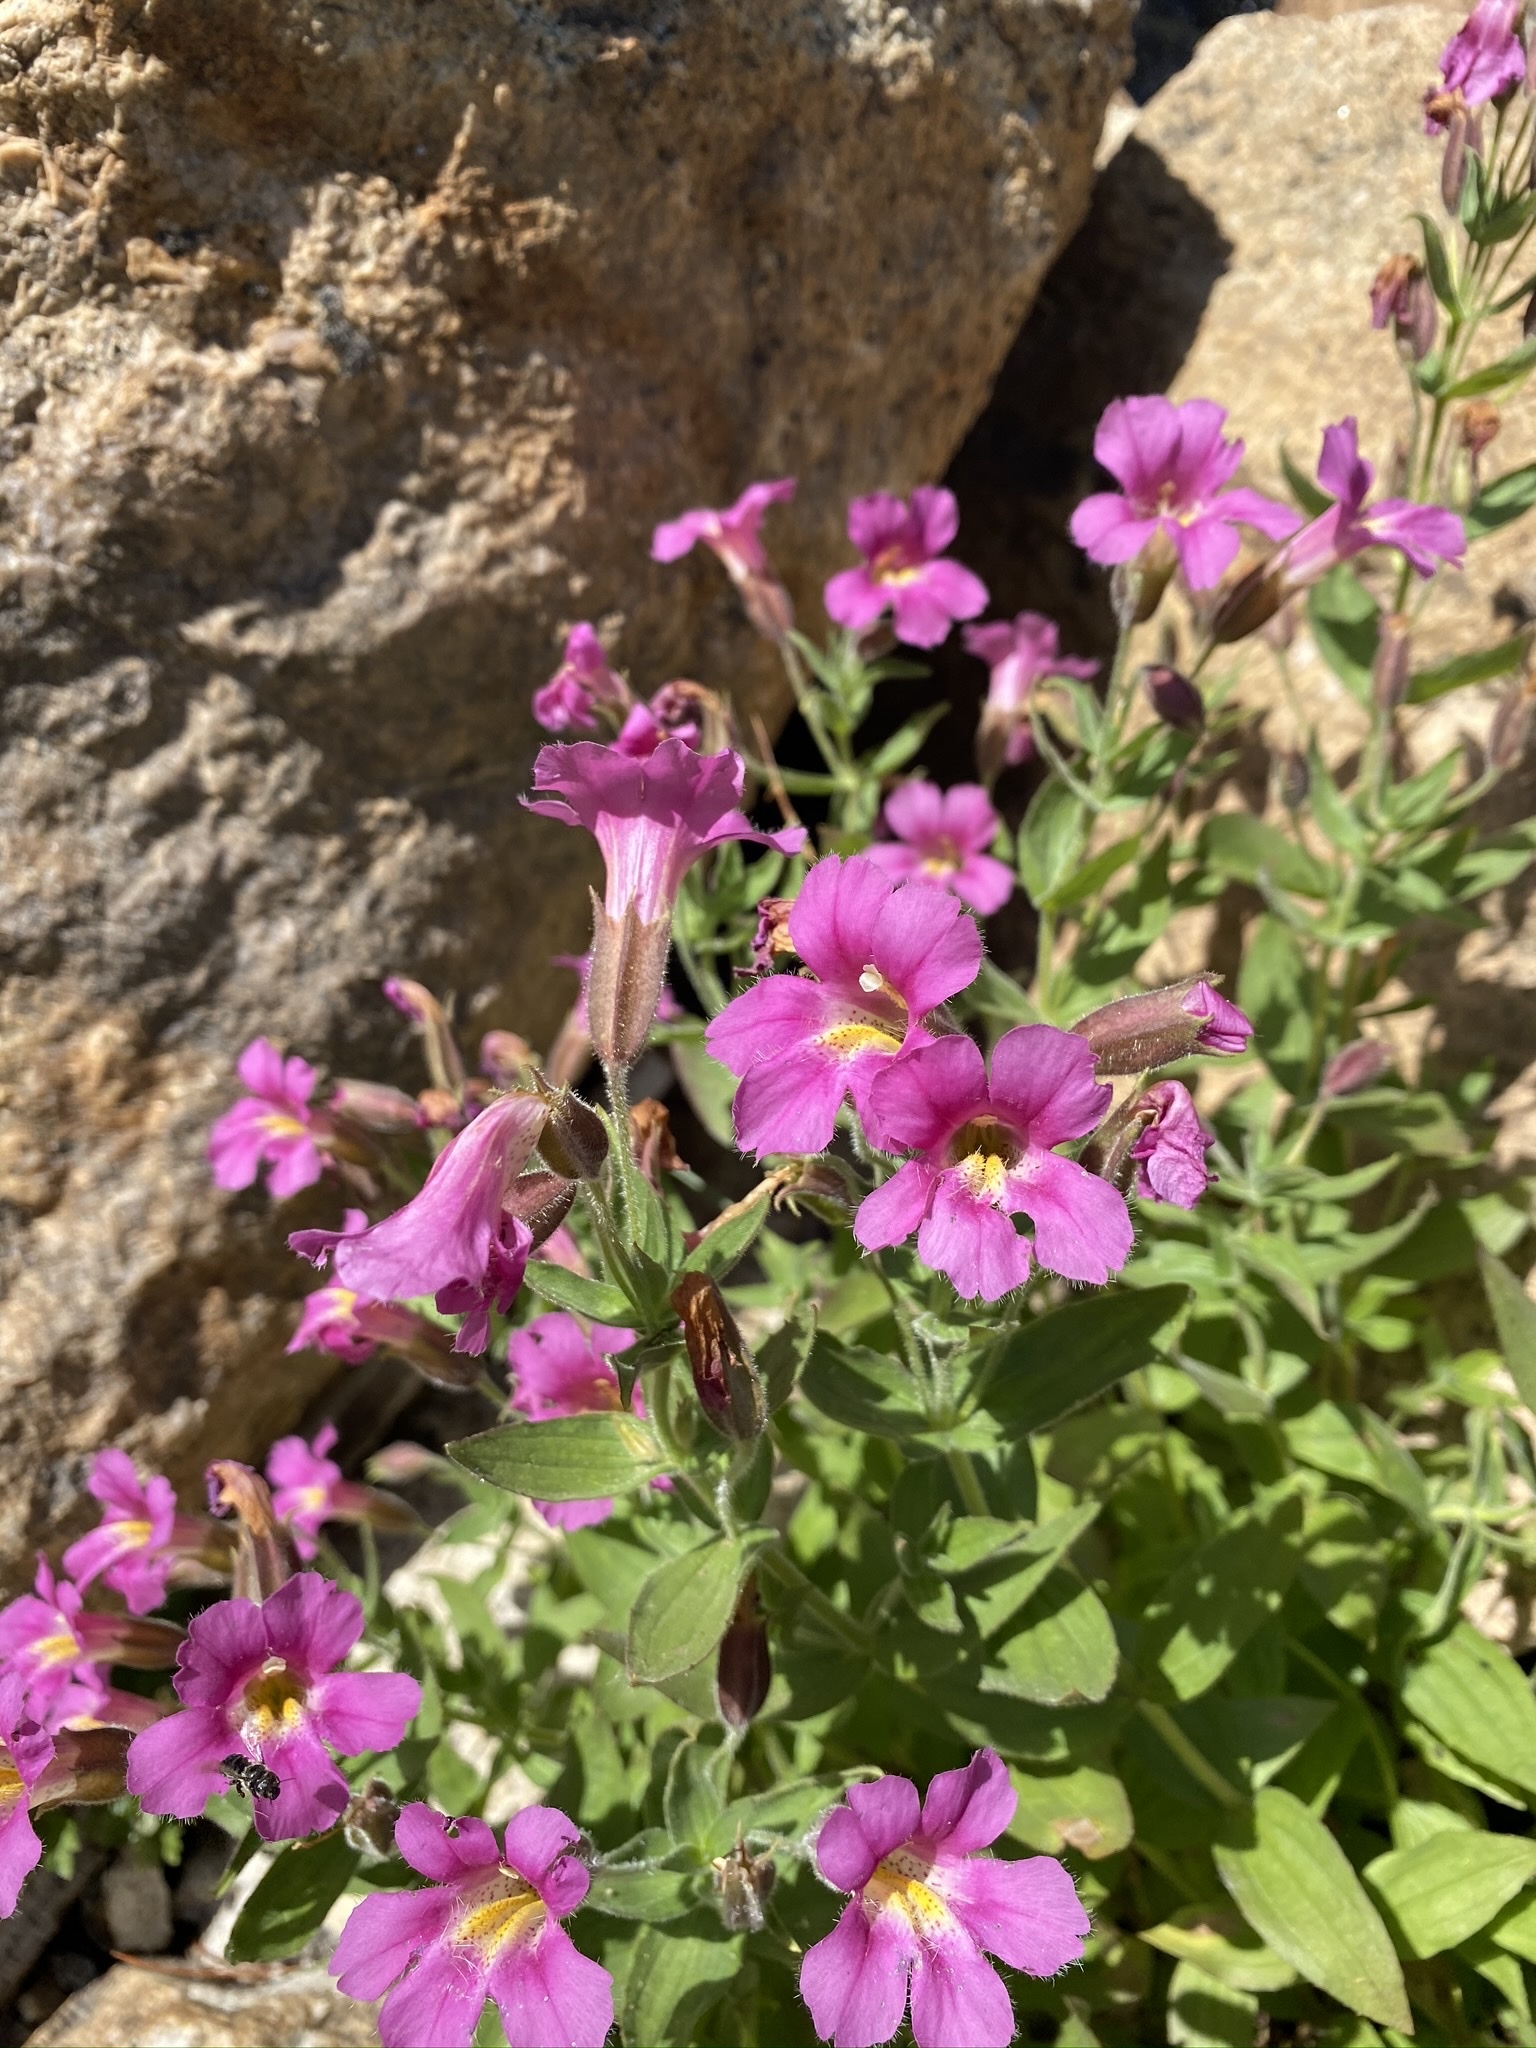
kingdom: Plantae
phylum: Tracheophyta
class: Magnoliopsida
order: Lamiales
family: Phrymaceae
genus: Erythranthe
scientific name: Erythranthe lewisii
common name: Lewis's monkey-flower
